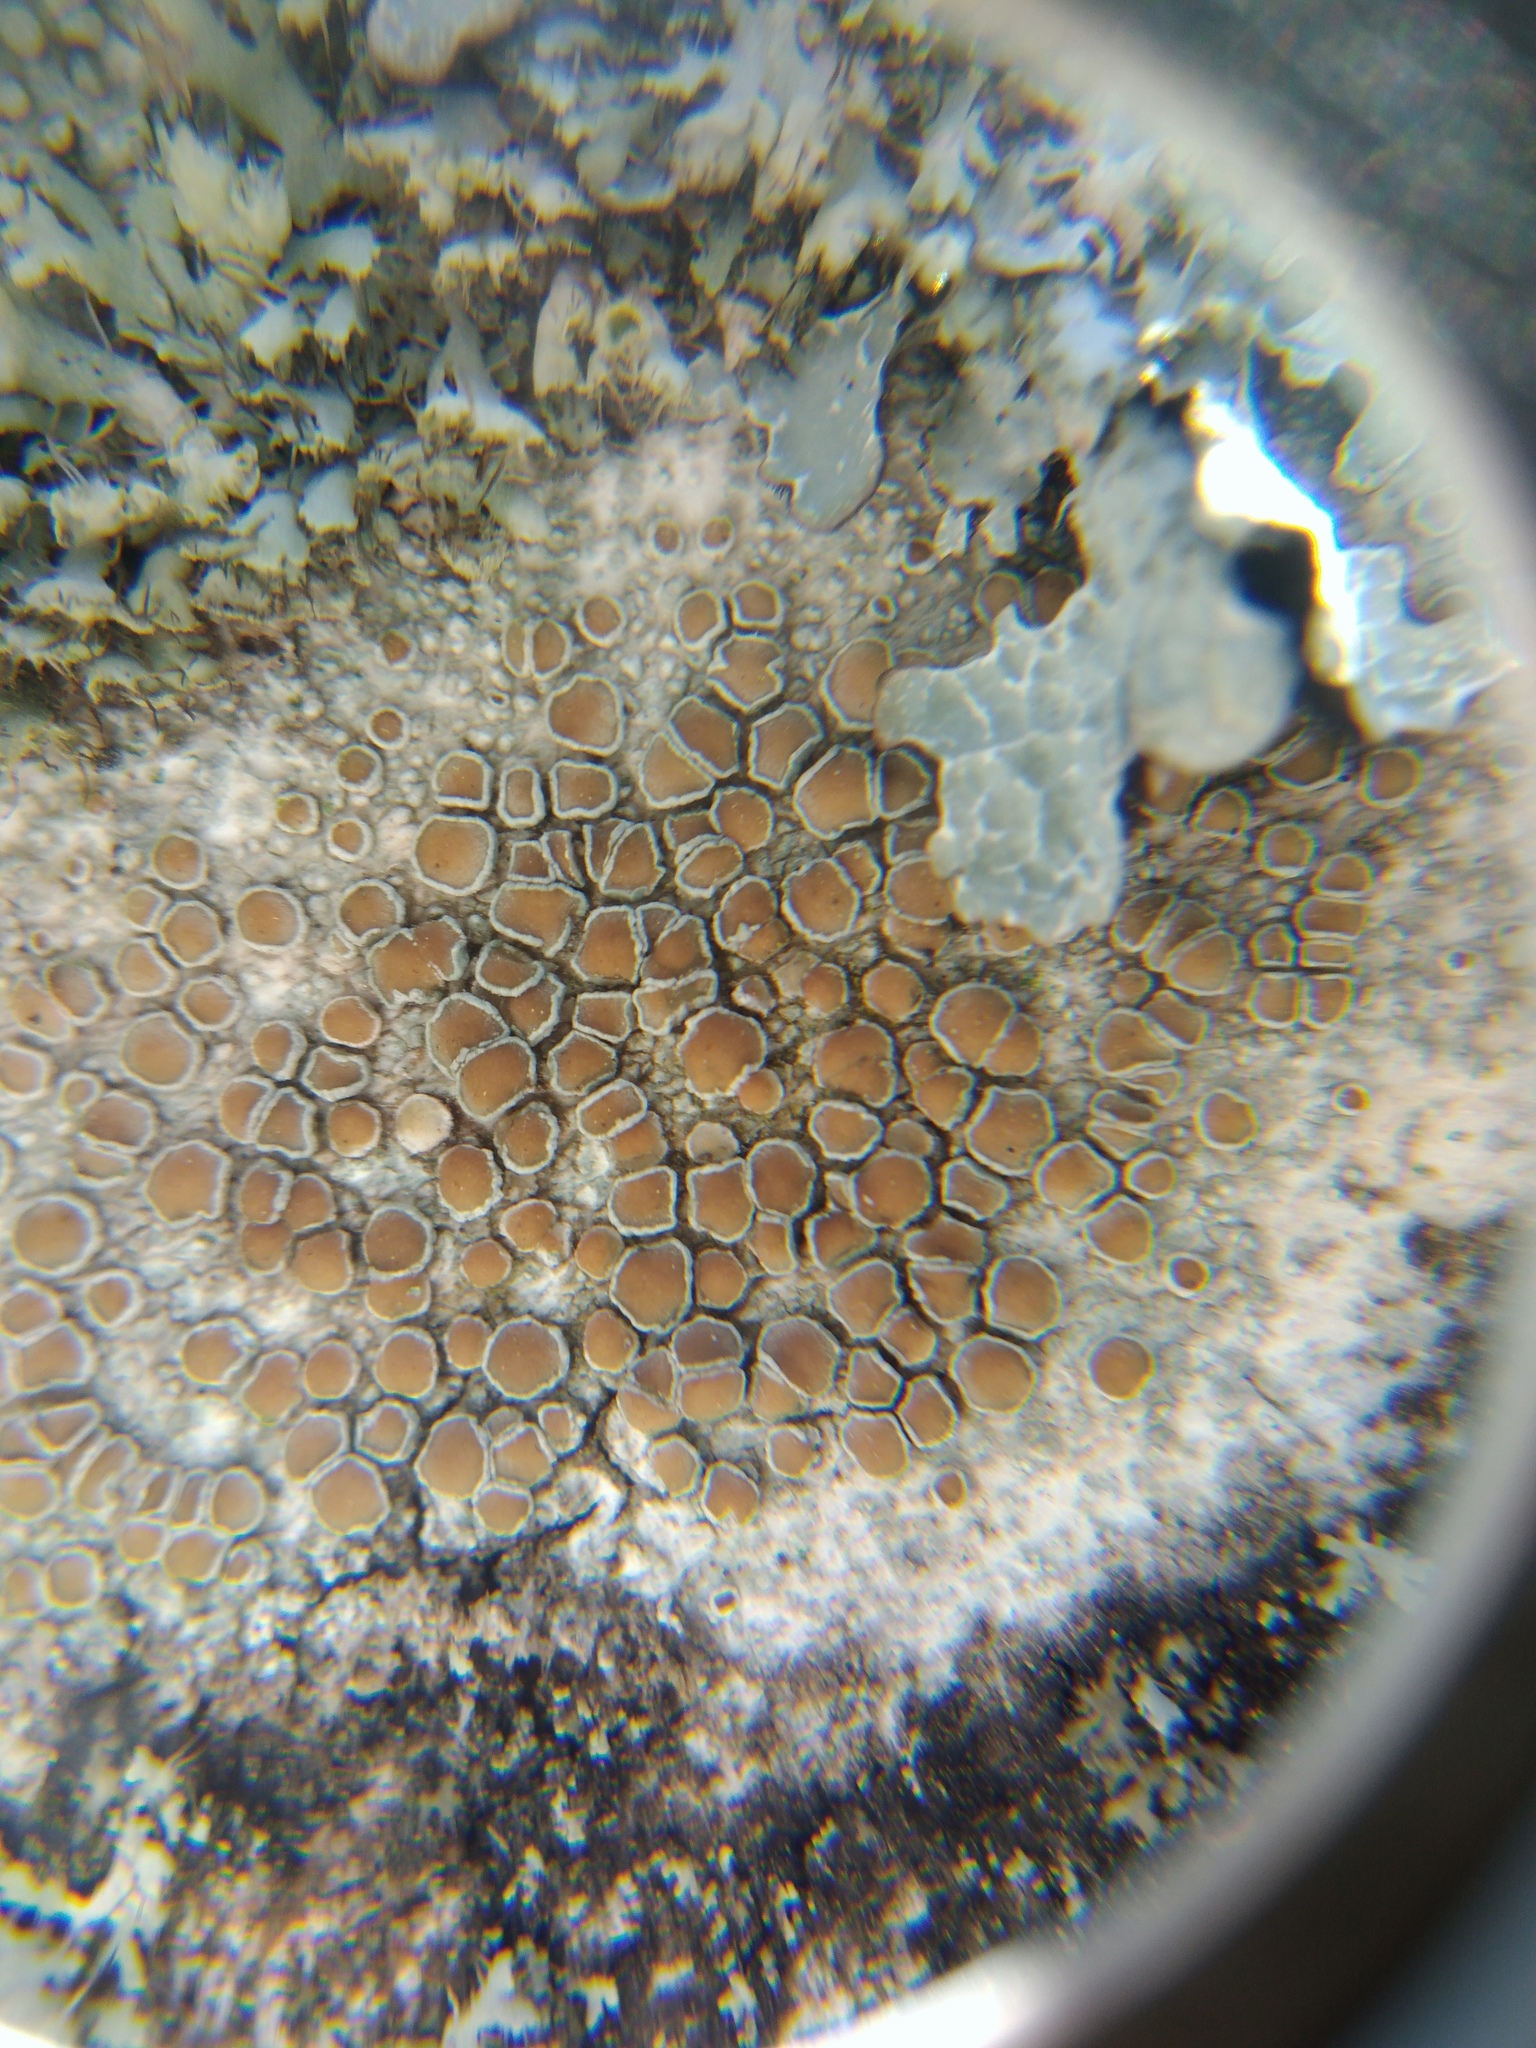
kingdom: Fungi
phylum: Ascomycota
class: Lecanoromycetes
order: Lecanorales
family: Lecanoraceae
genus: Lecanora
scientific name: Lecanora chlarotera
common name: Brown rim-lichen
